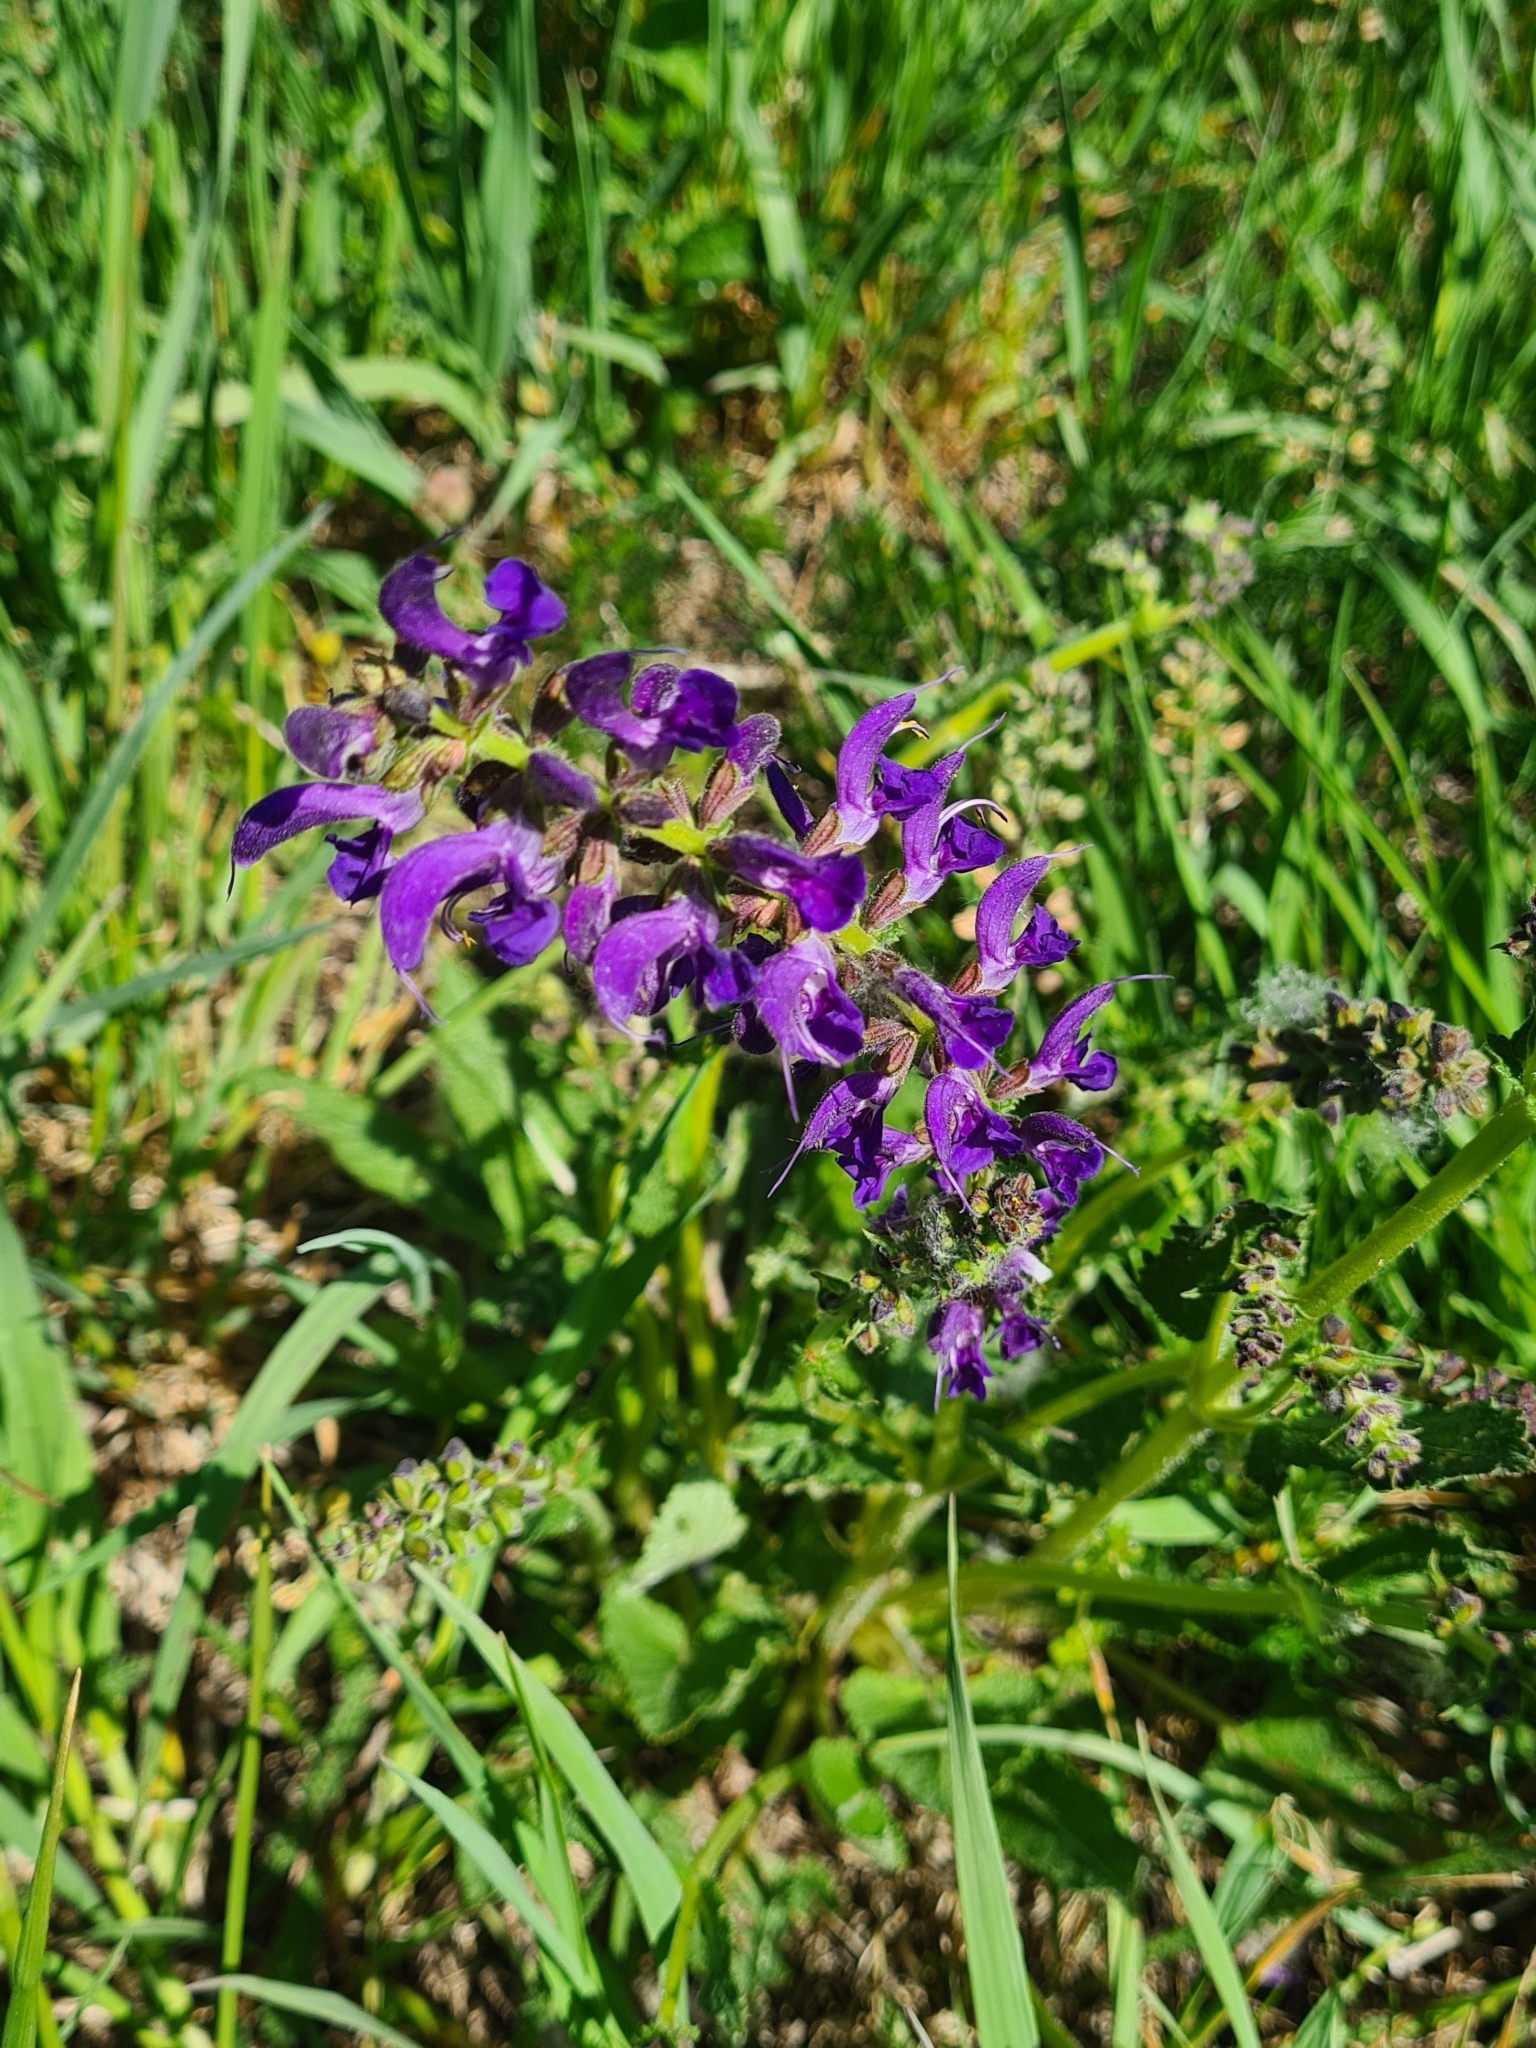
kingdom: Plantae
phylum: Tracheophyta
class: Magnoliopsida
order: Lamiales
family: Lamiaceae
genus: Salvia
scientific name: Salvia pratensis
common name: Meadow sage
